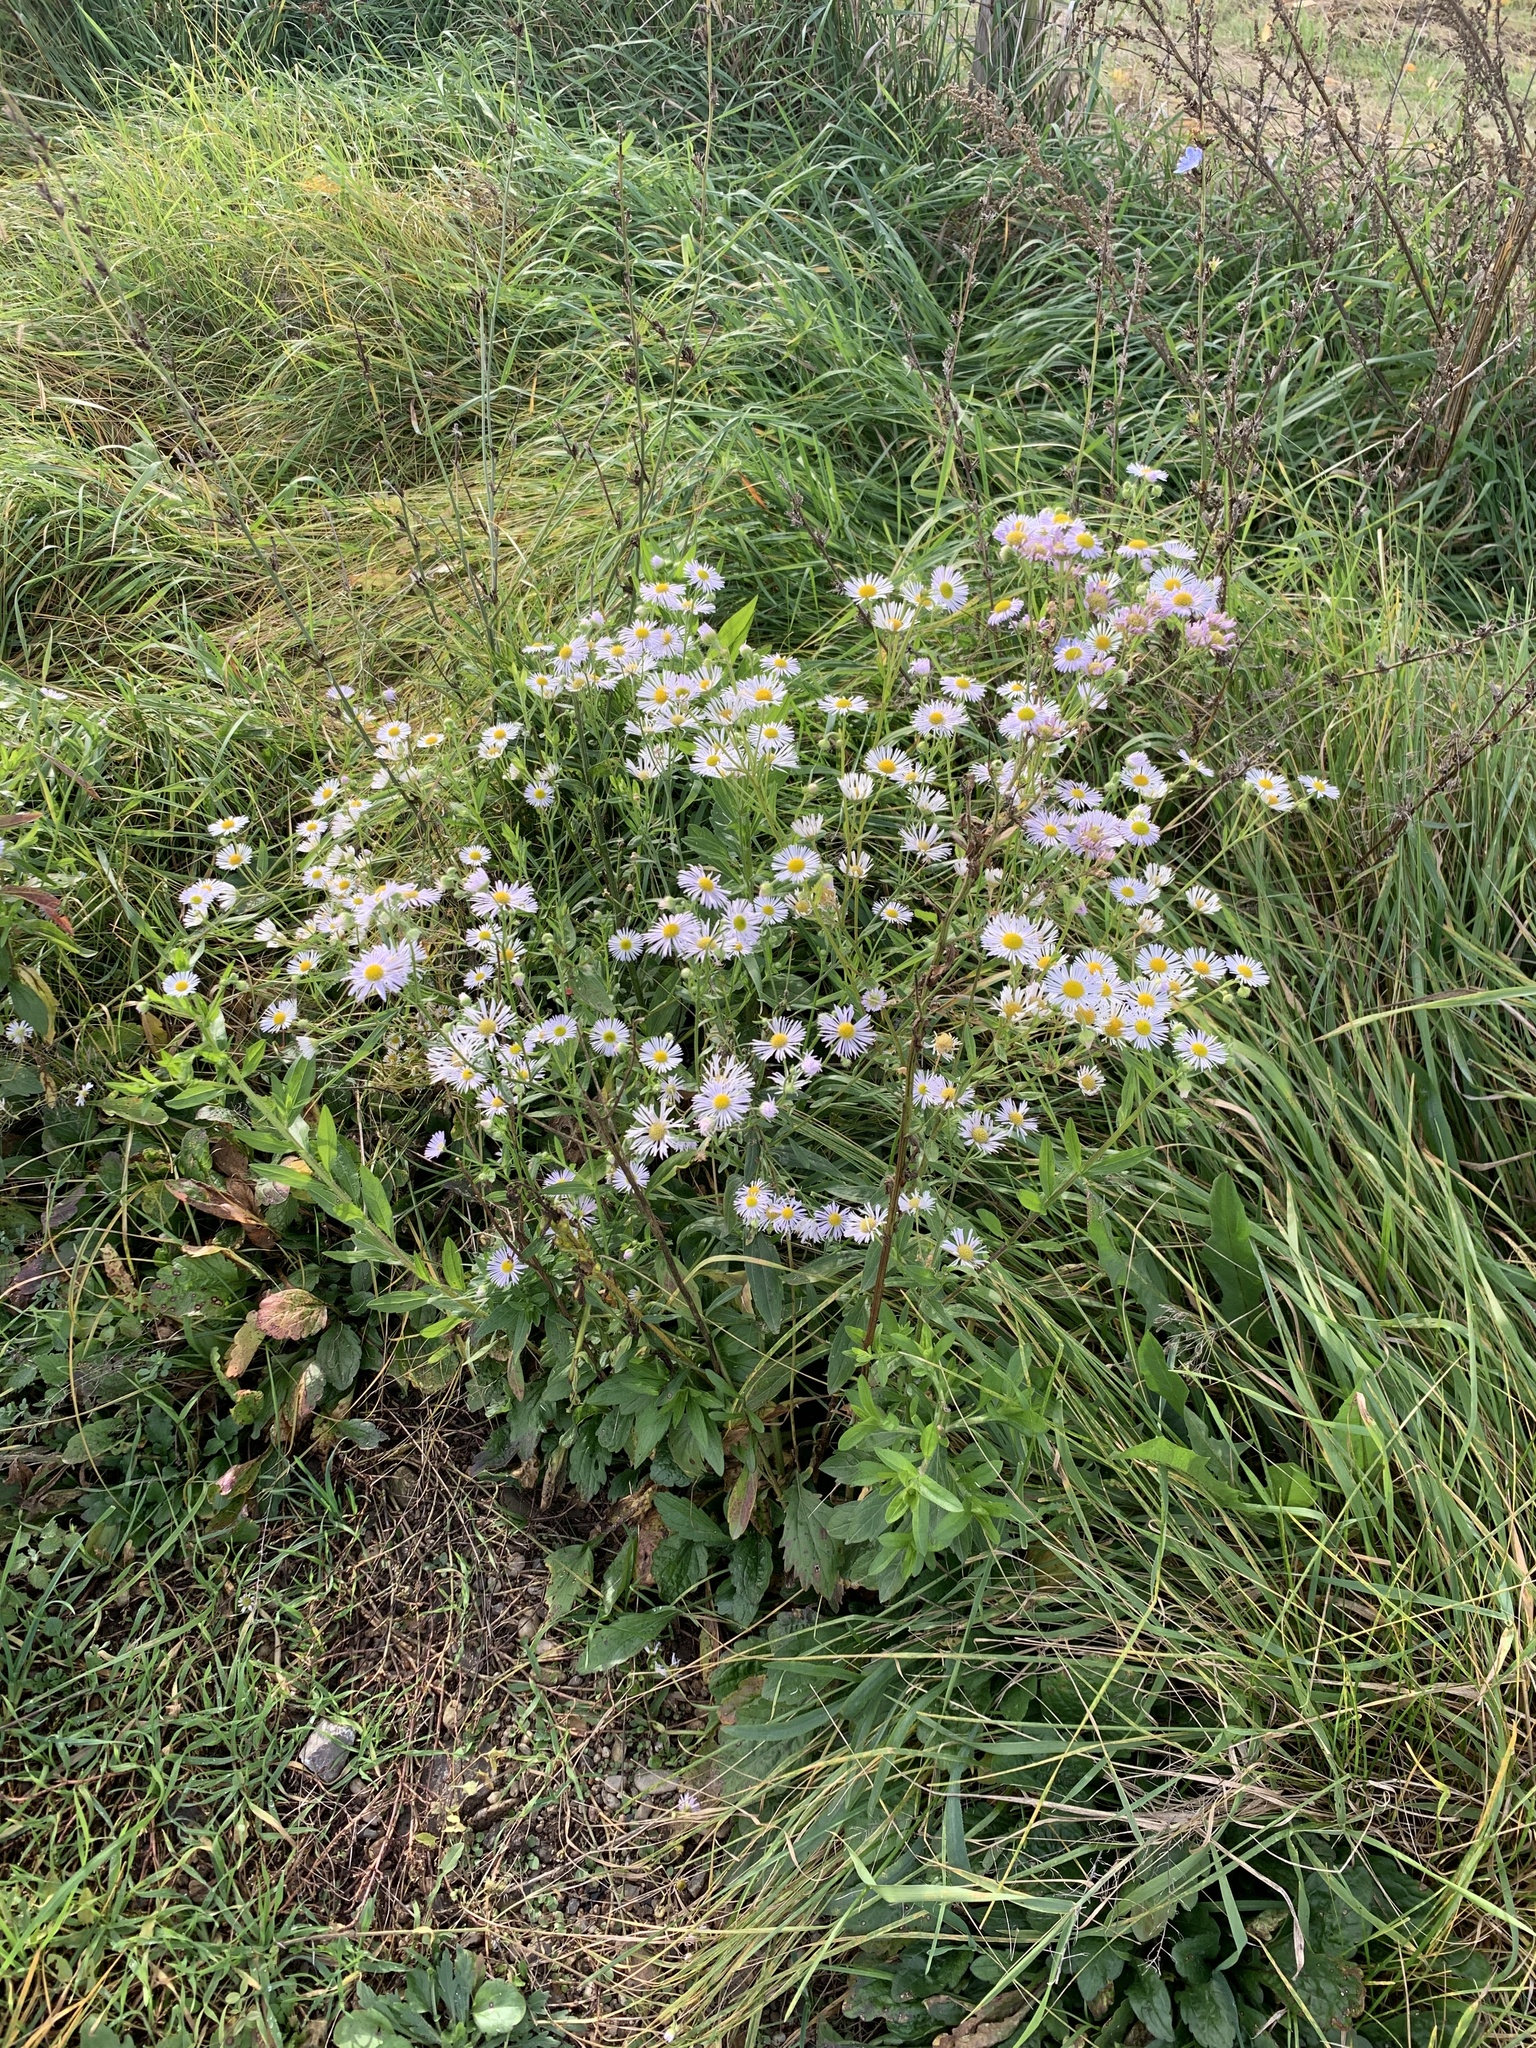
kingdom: Plantae
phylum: Tracheophyta
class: Magnoliopsida
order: Asterales
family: Asteraceae
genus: Erigeron
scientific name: Erigeron annuus
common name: Tall fleabane
